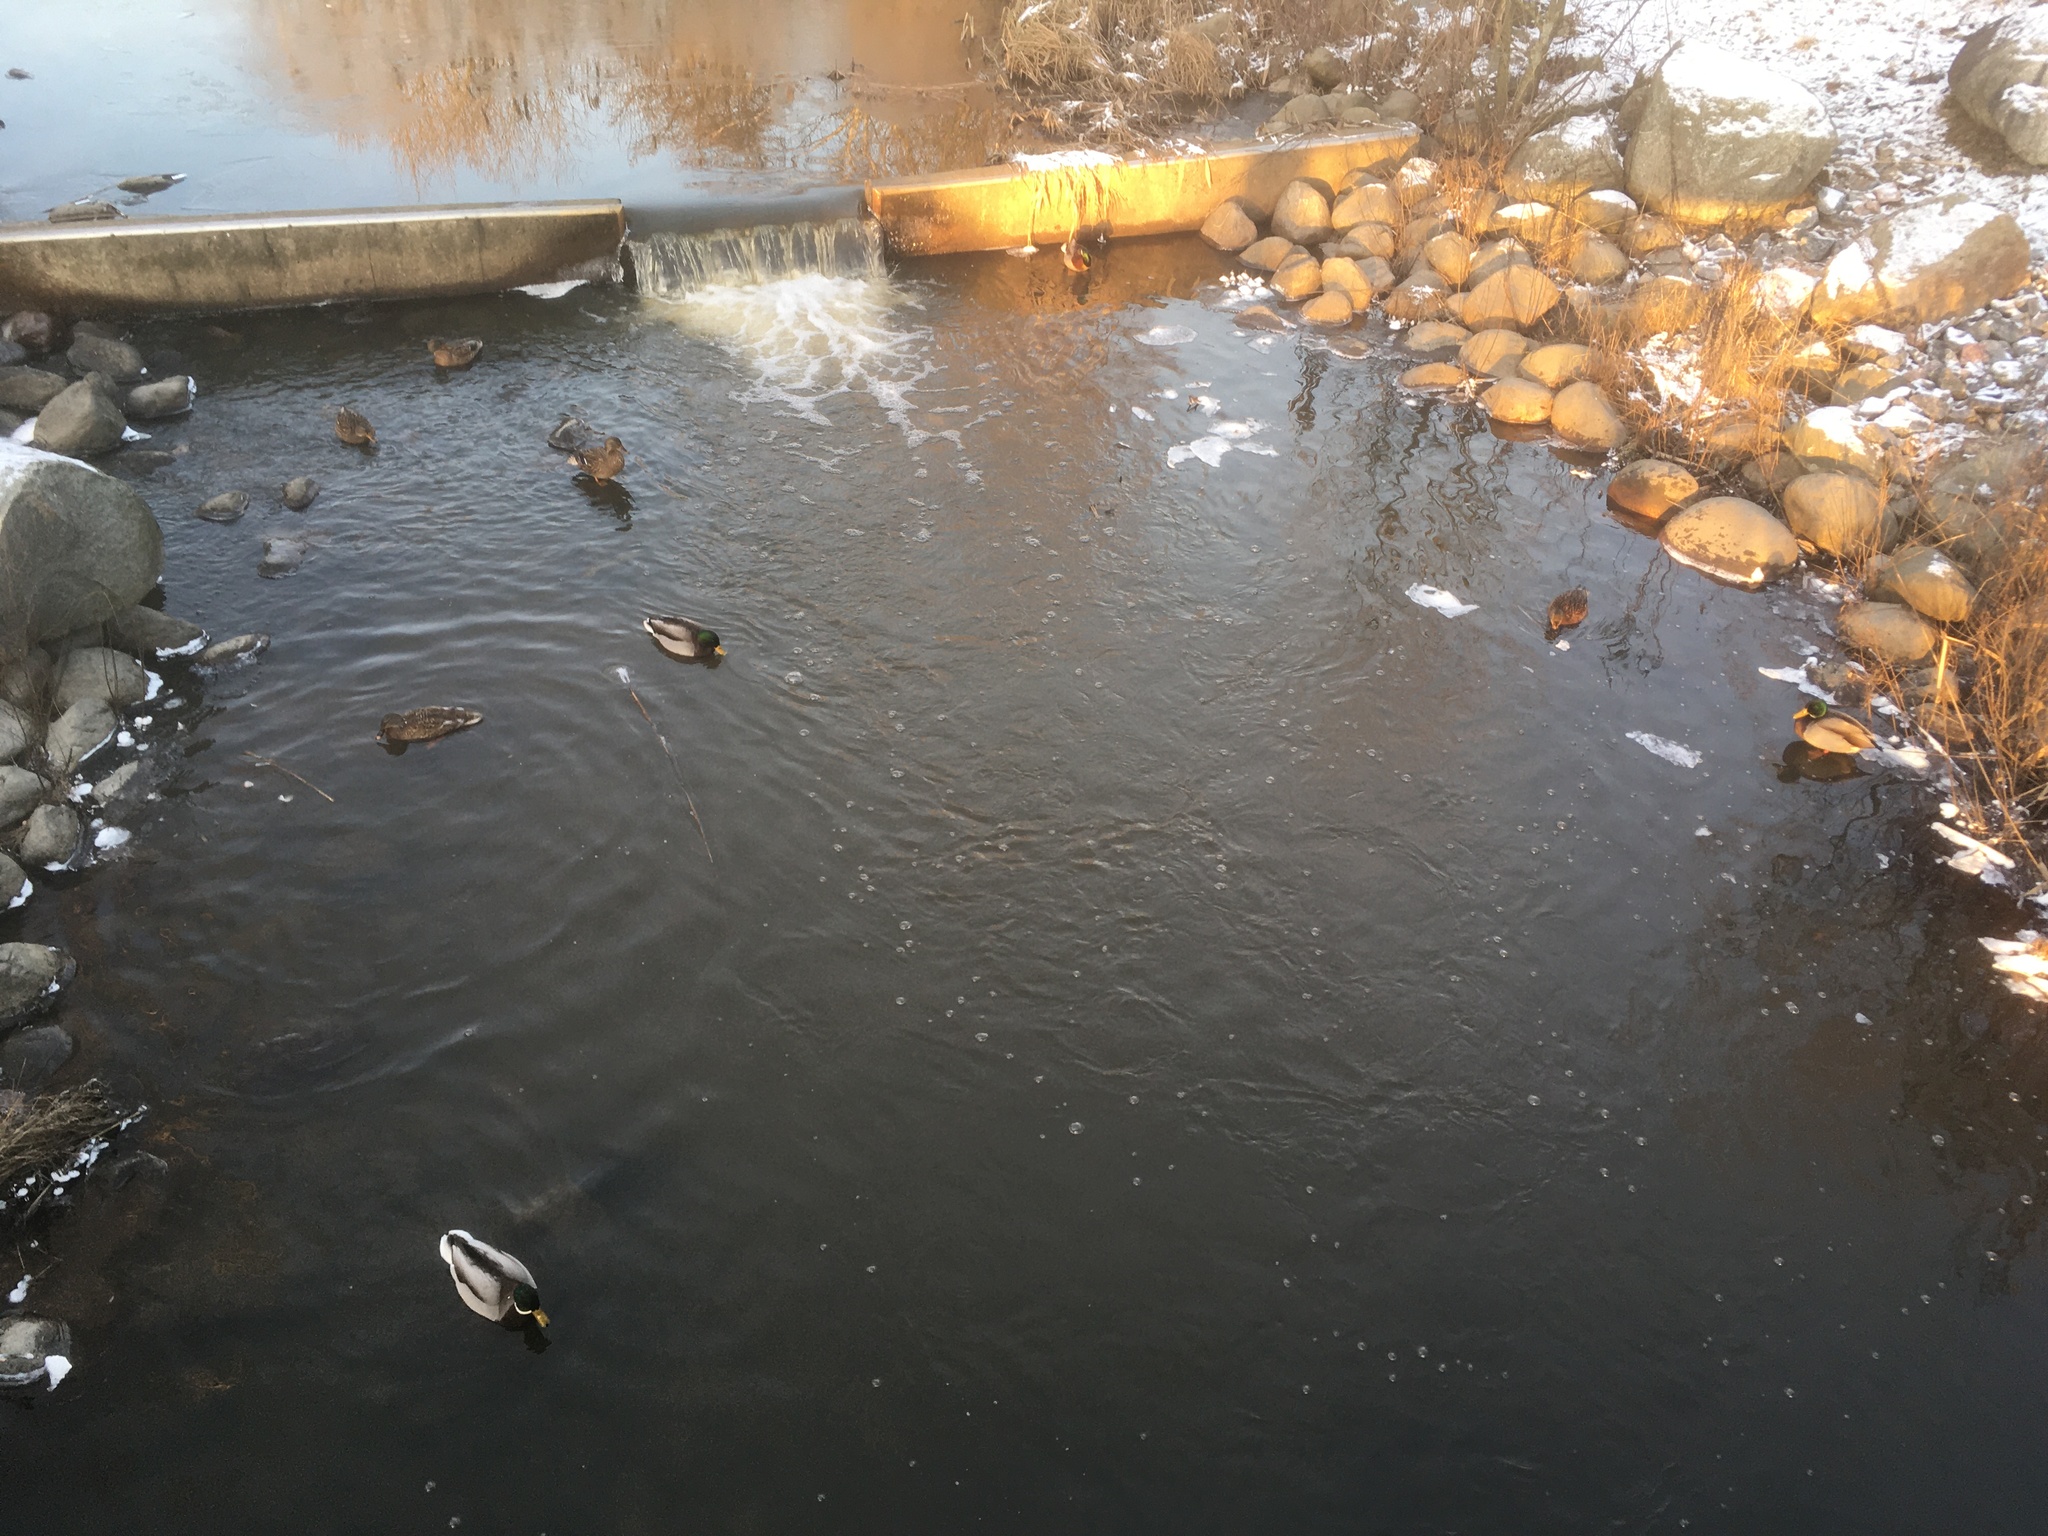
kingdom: Animalia
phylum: Chordata
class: Aves
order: Anseriformes
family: Anatidae
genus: Anas
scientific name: Anas platyrhynchos
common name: Mallard
